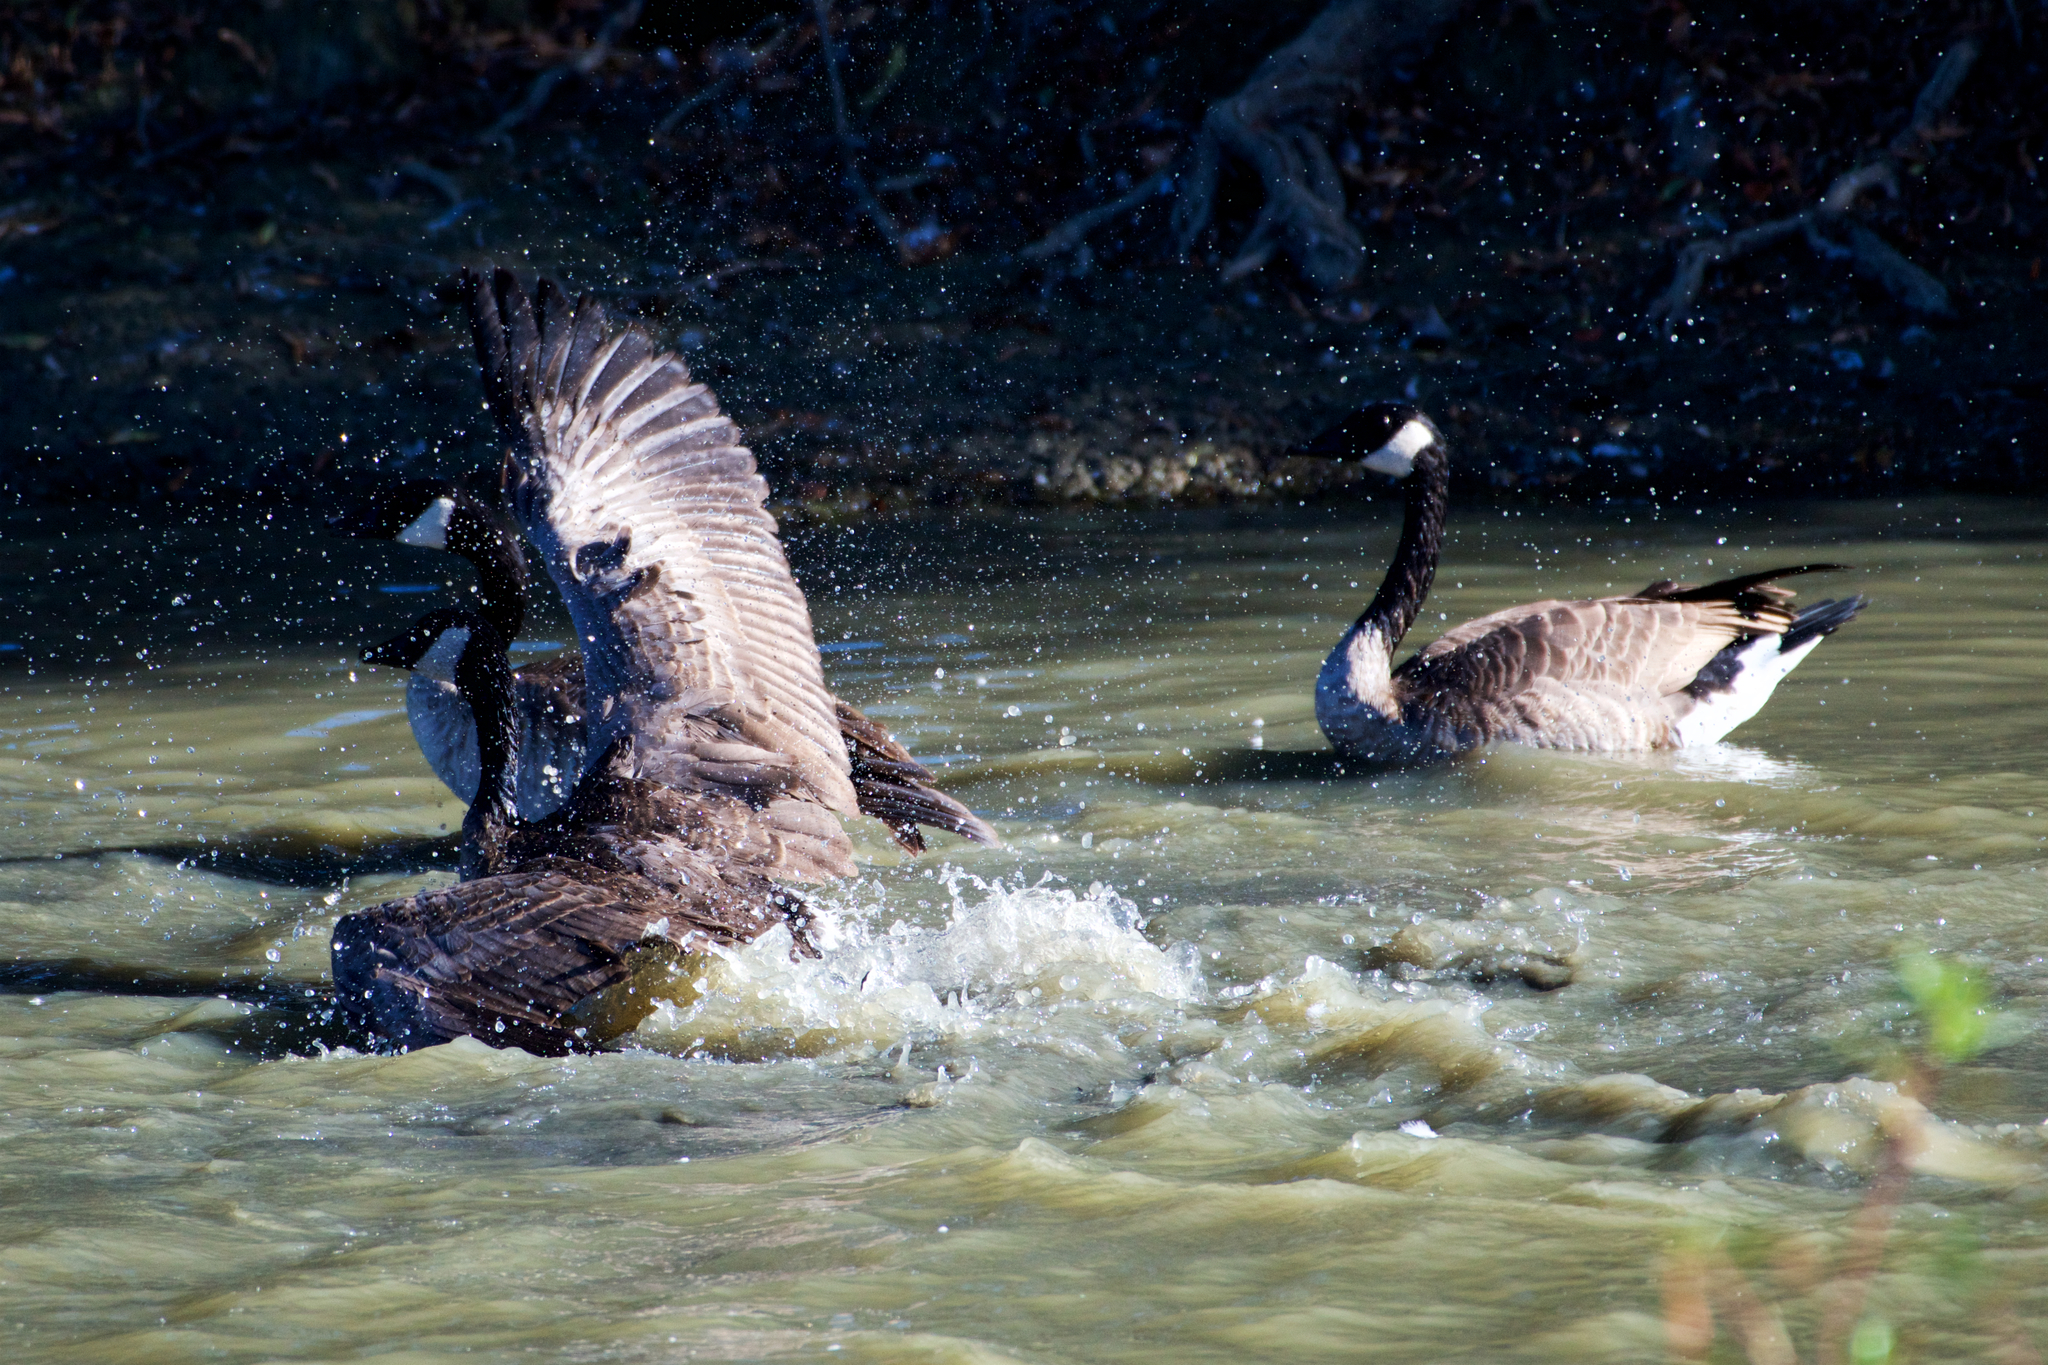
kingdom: Animalia
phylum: Chordata
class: Aves
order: Anseriformes
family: Anatidae
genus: Branta
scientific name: Branta canadensis
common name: Canada goose
